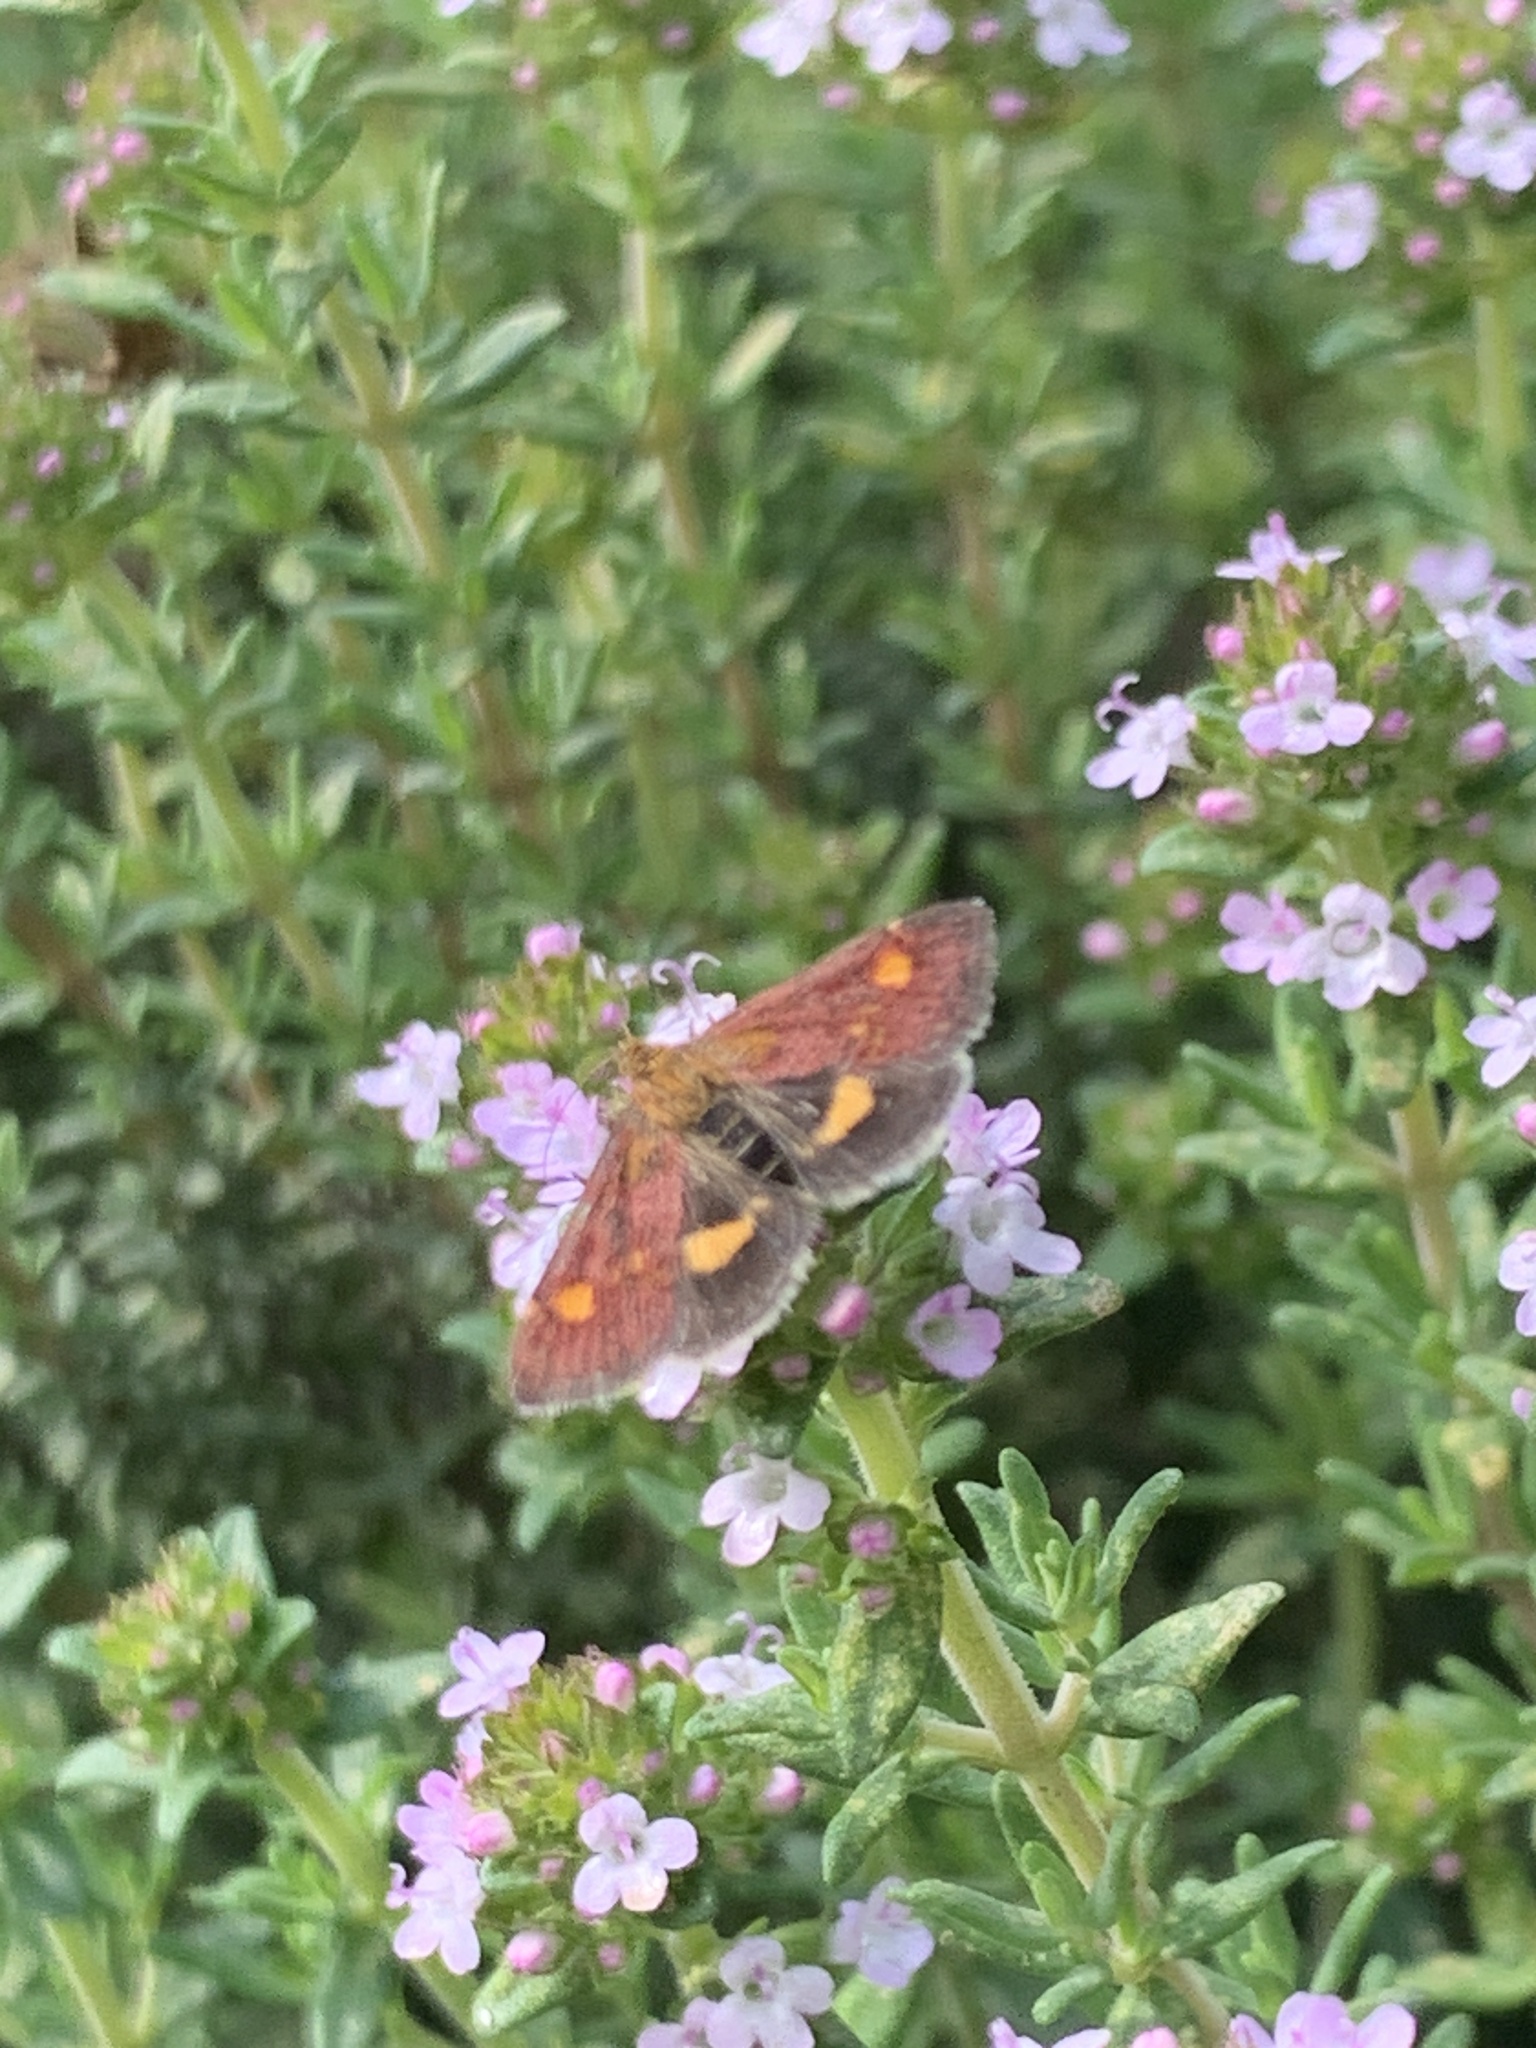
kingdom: Animalia
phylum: Arthropoda
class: Insecta
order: Lepidoptera
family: Crambidae
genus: Pyrausta
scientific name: Pyrausta aurata
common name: Small purple & gold
